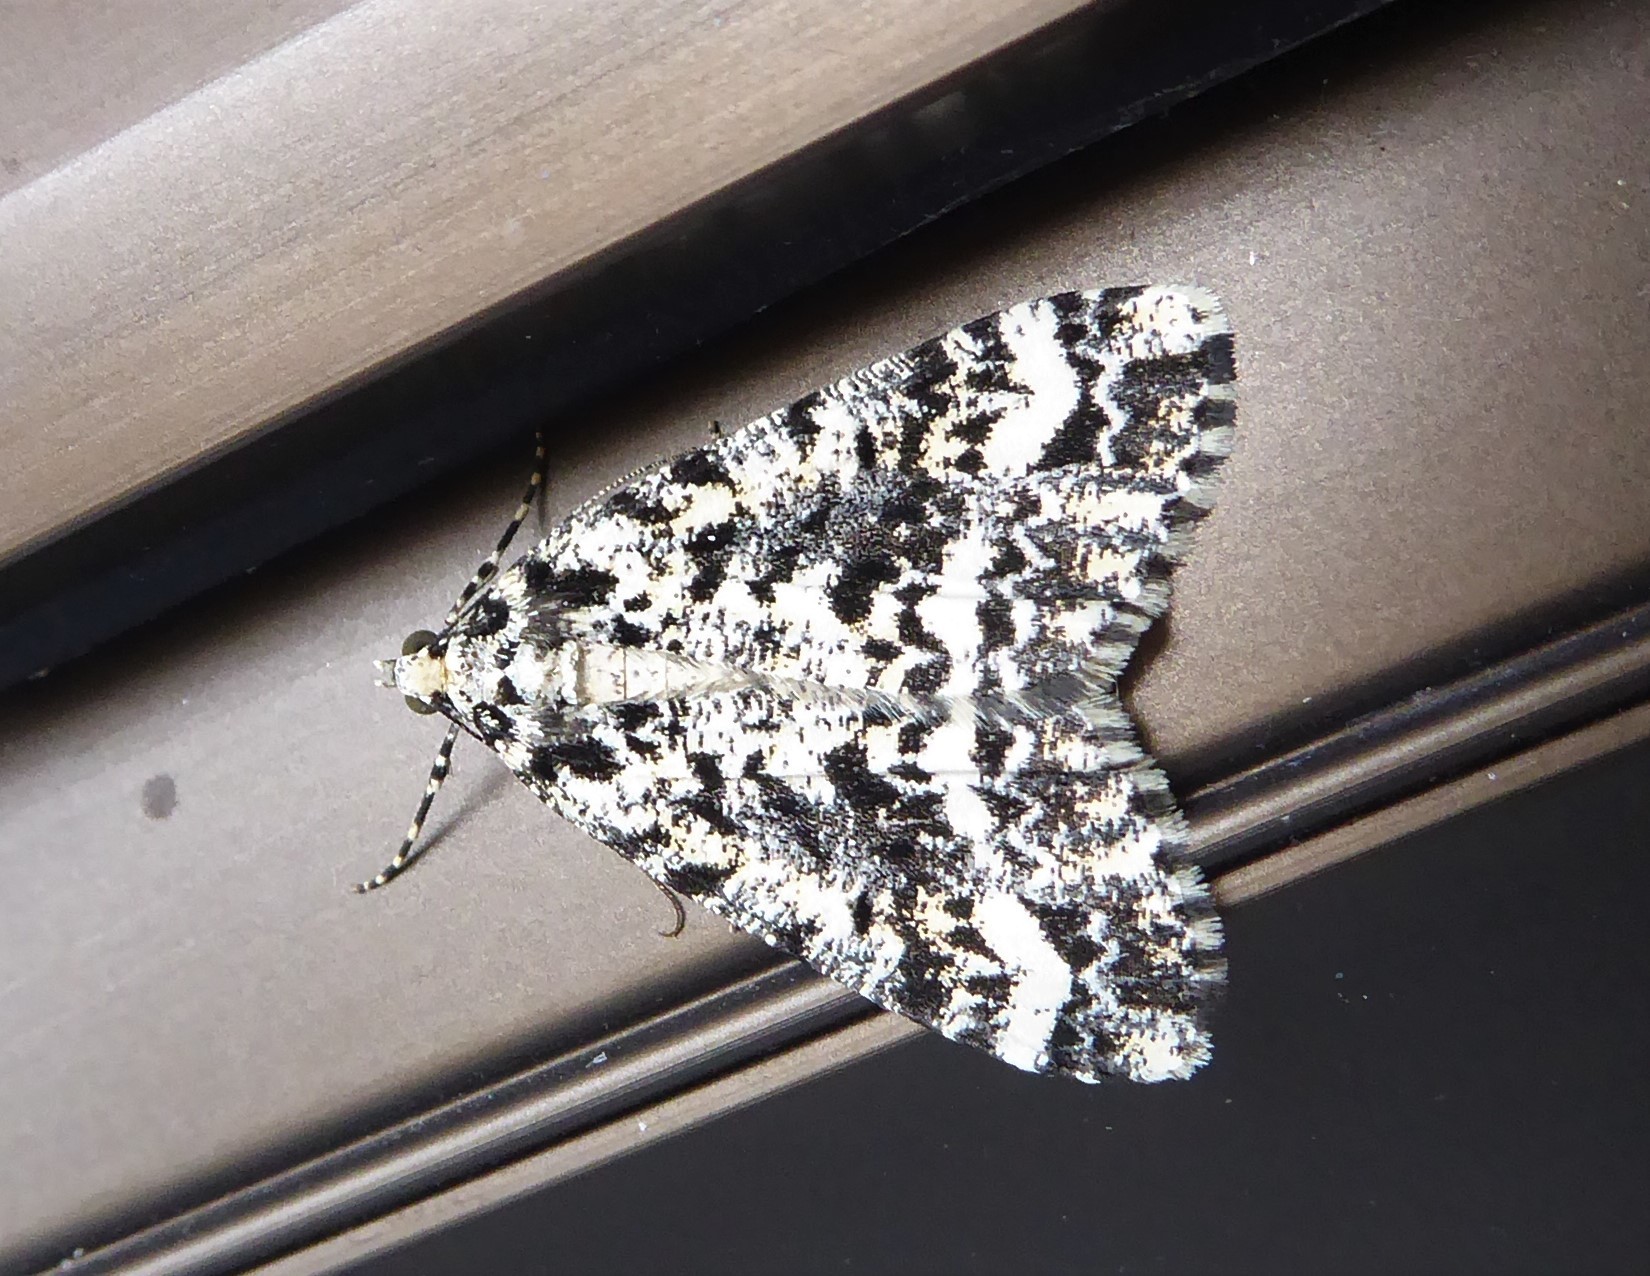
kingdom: Animalia
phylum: Arthropoda
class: Insecta
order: Lepidoptera
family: Geometridae
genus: Pseudocoremia
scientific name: Pseudocoremia leucelaea
